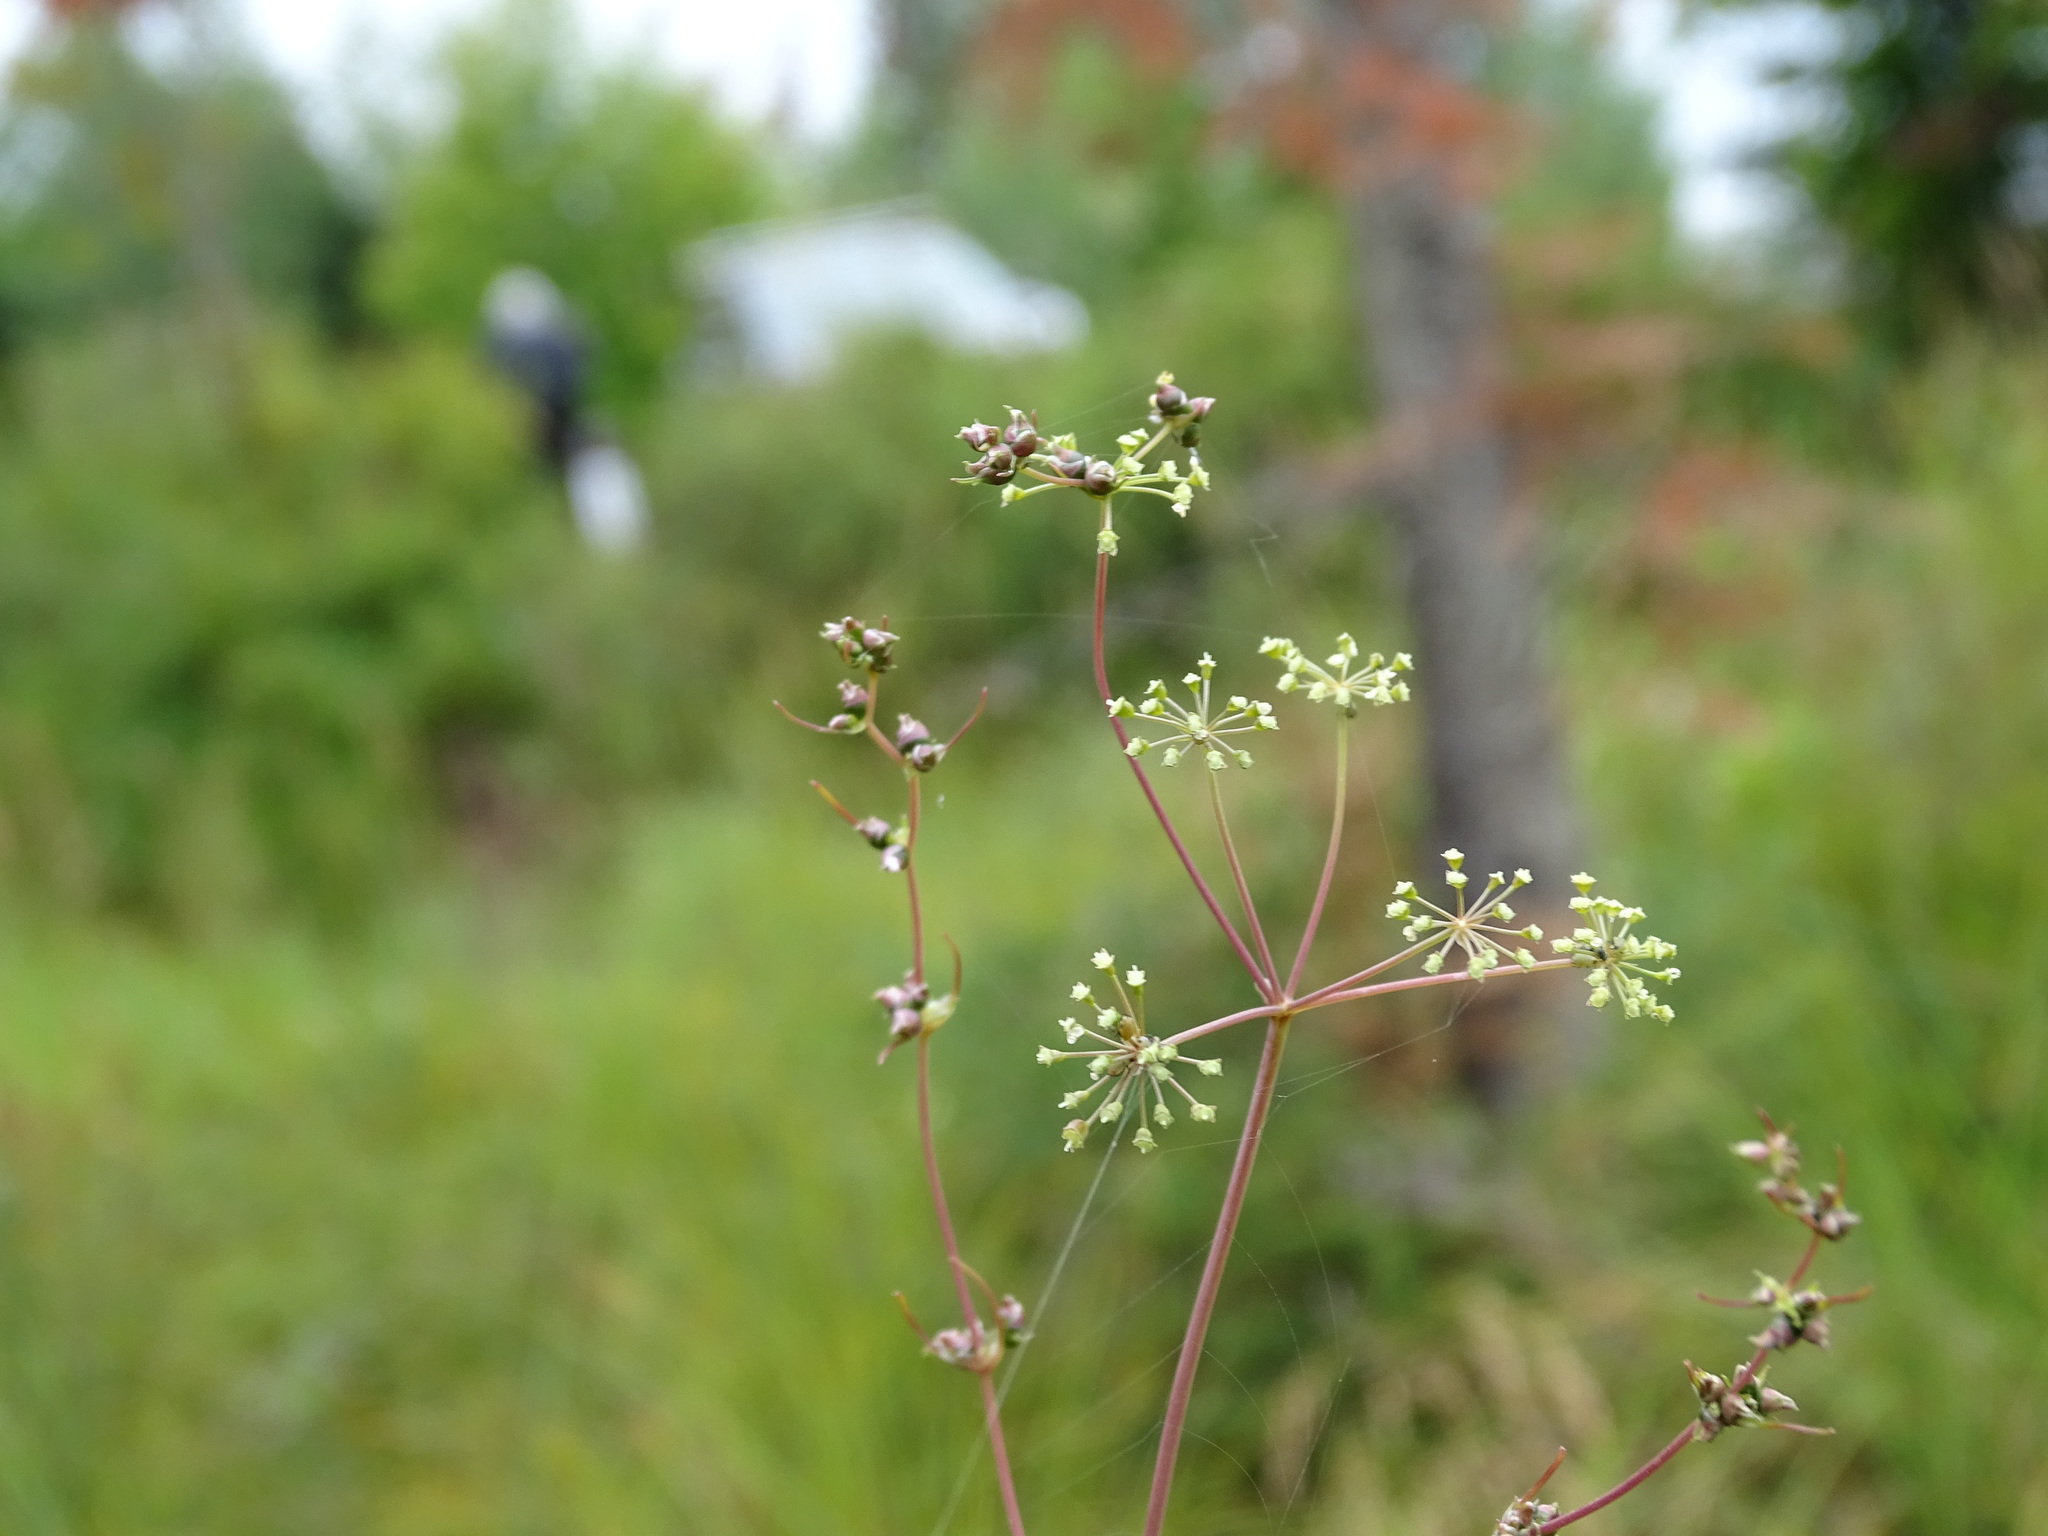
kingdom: Plantae
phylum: Tracheophyta
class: Magnoliopsida
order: Apiales
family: Apiaceae
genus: Cicuta
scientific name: Cicuta bulbifera
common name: Bulb-bearing water-hemlock
